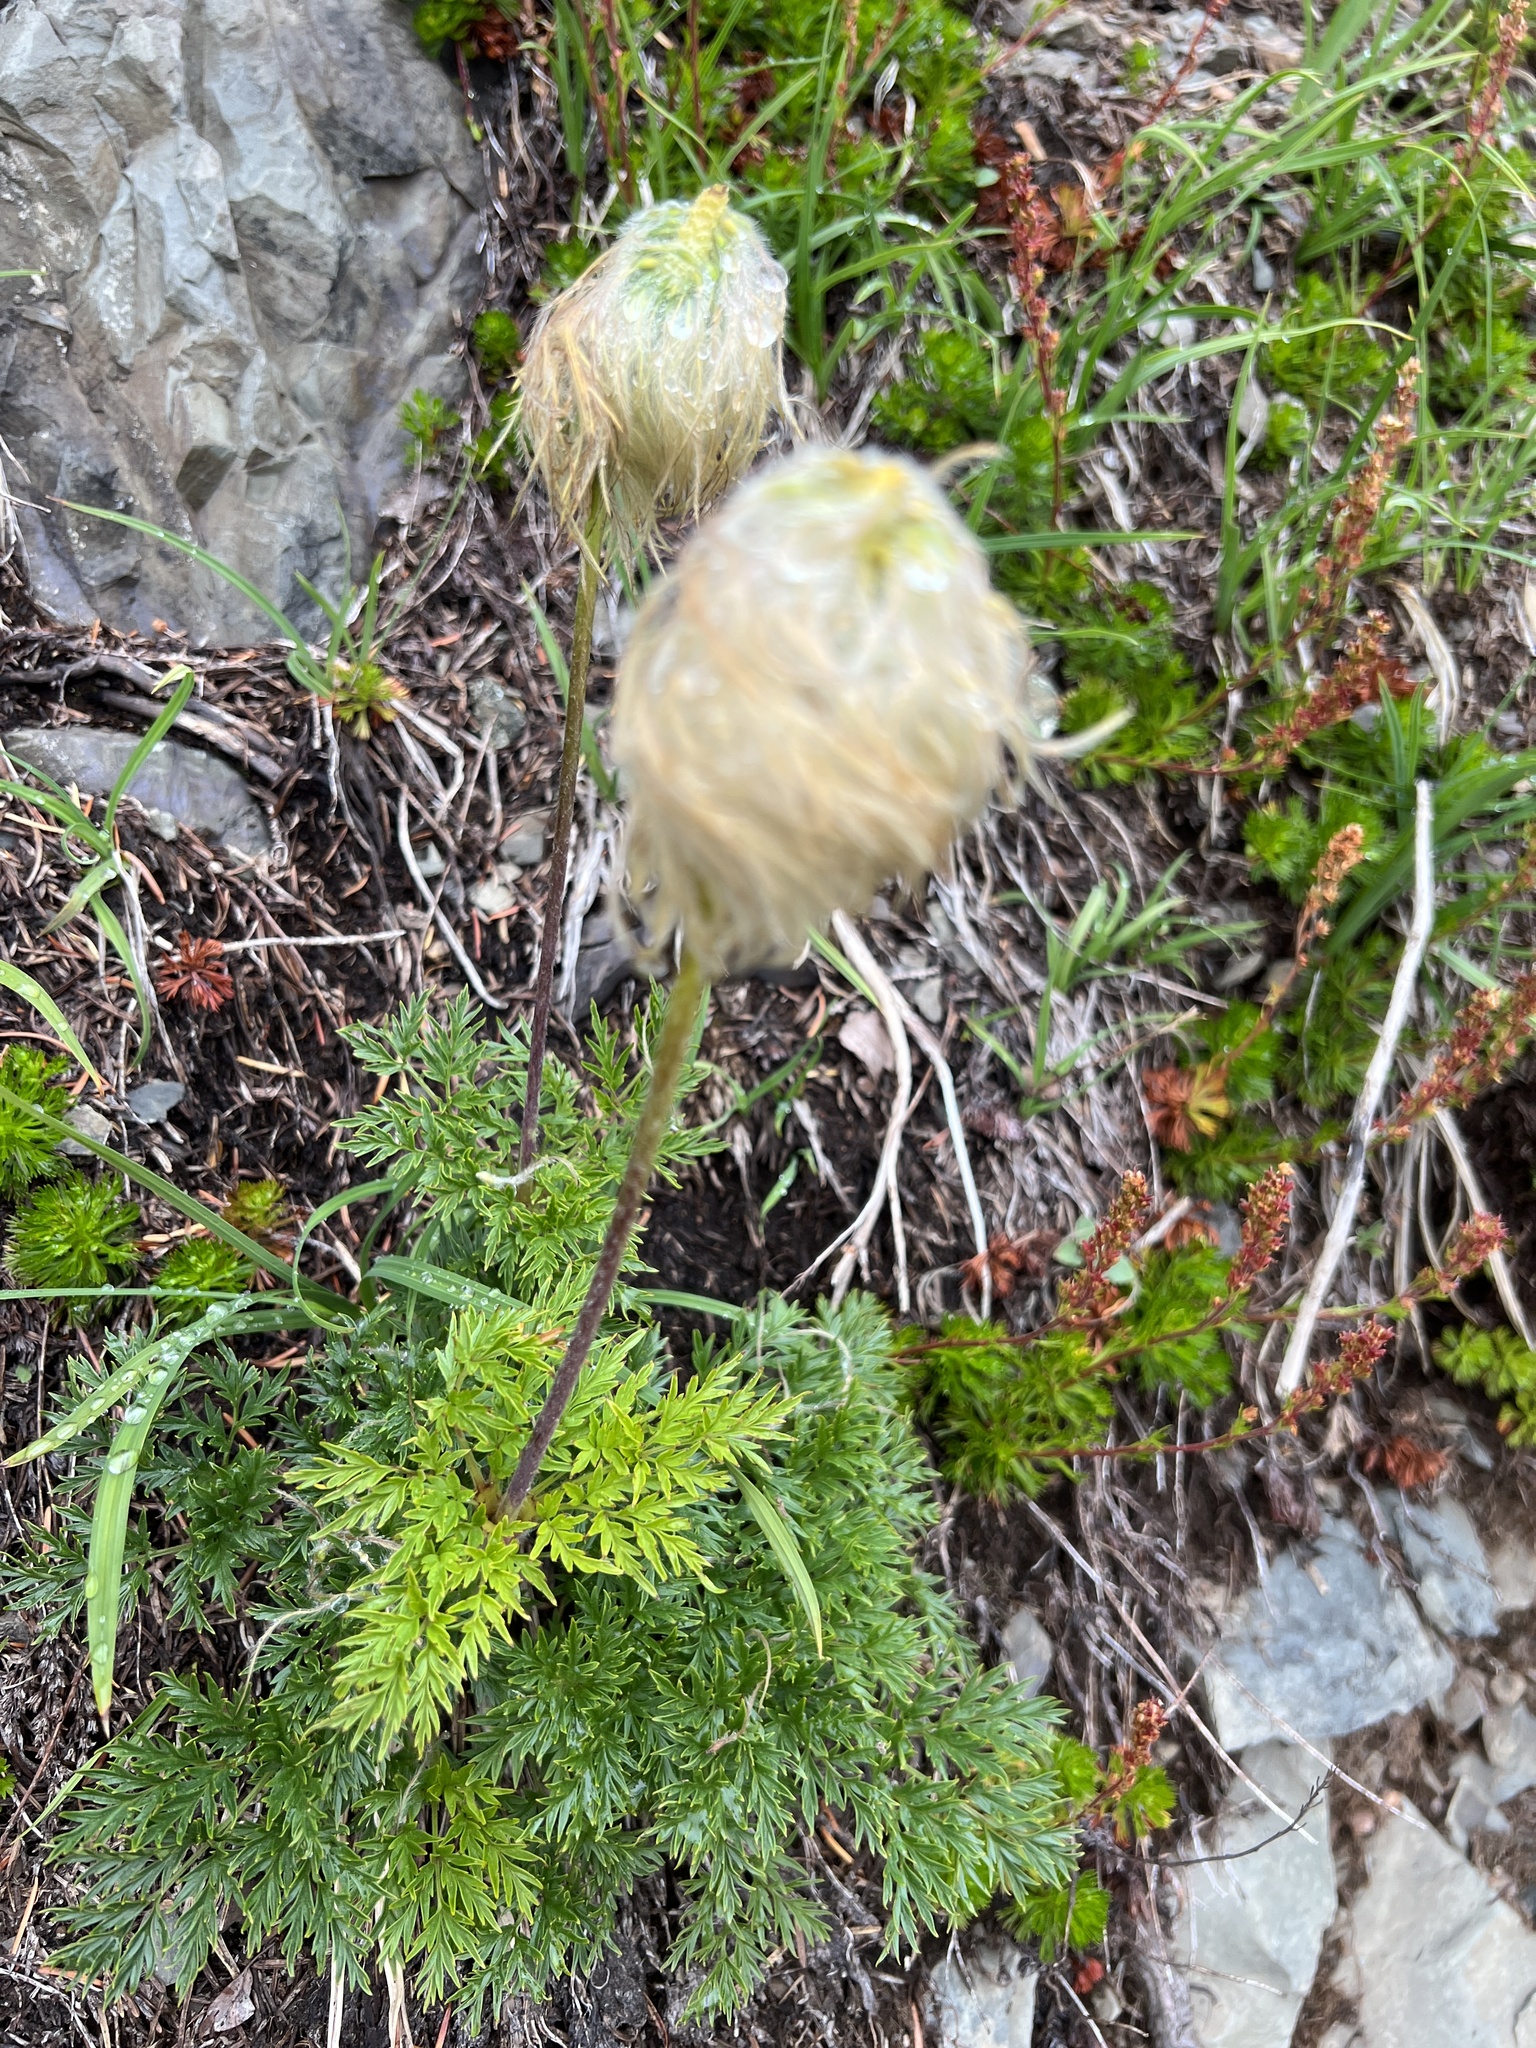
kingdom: Plantae
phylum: Tracheophyta
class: Magnoliopsida
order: Ranunculales
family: Ranunculaceae
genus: Pulsatilla
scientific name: Pulsatilla occidentalis
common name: Mountain pasqueflower
